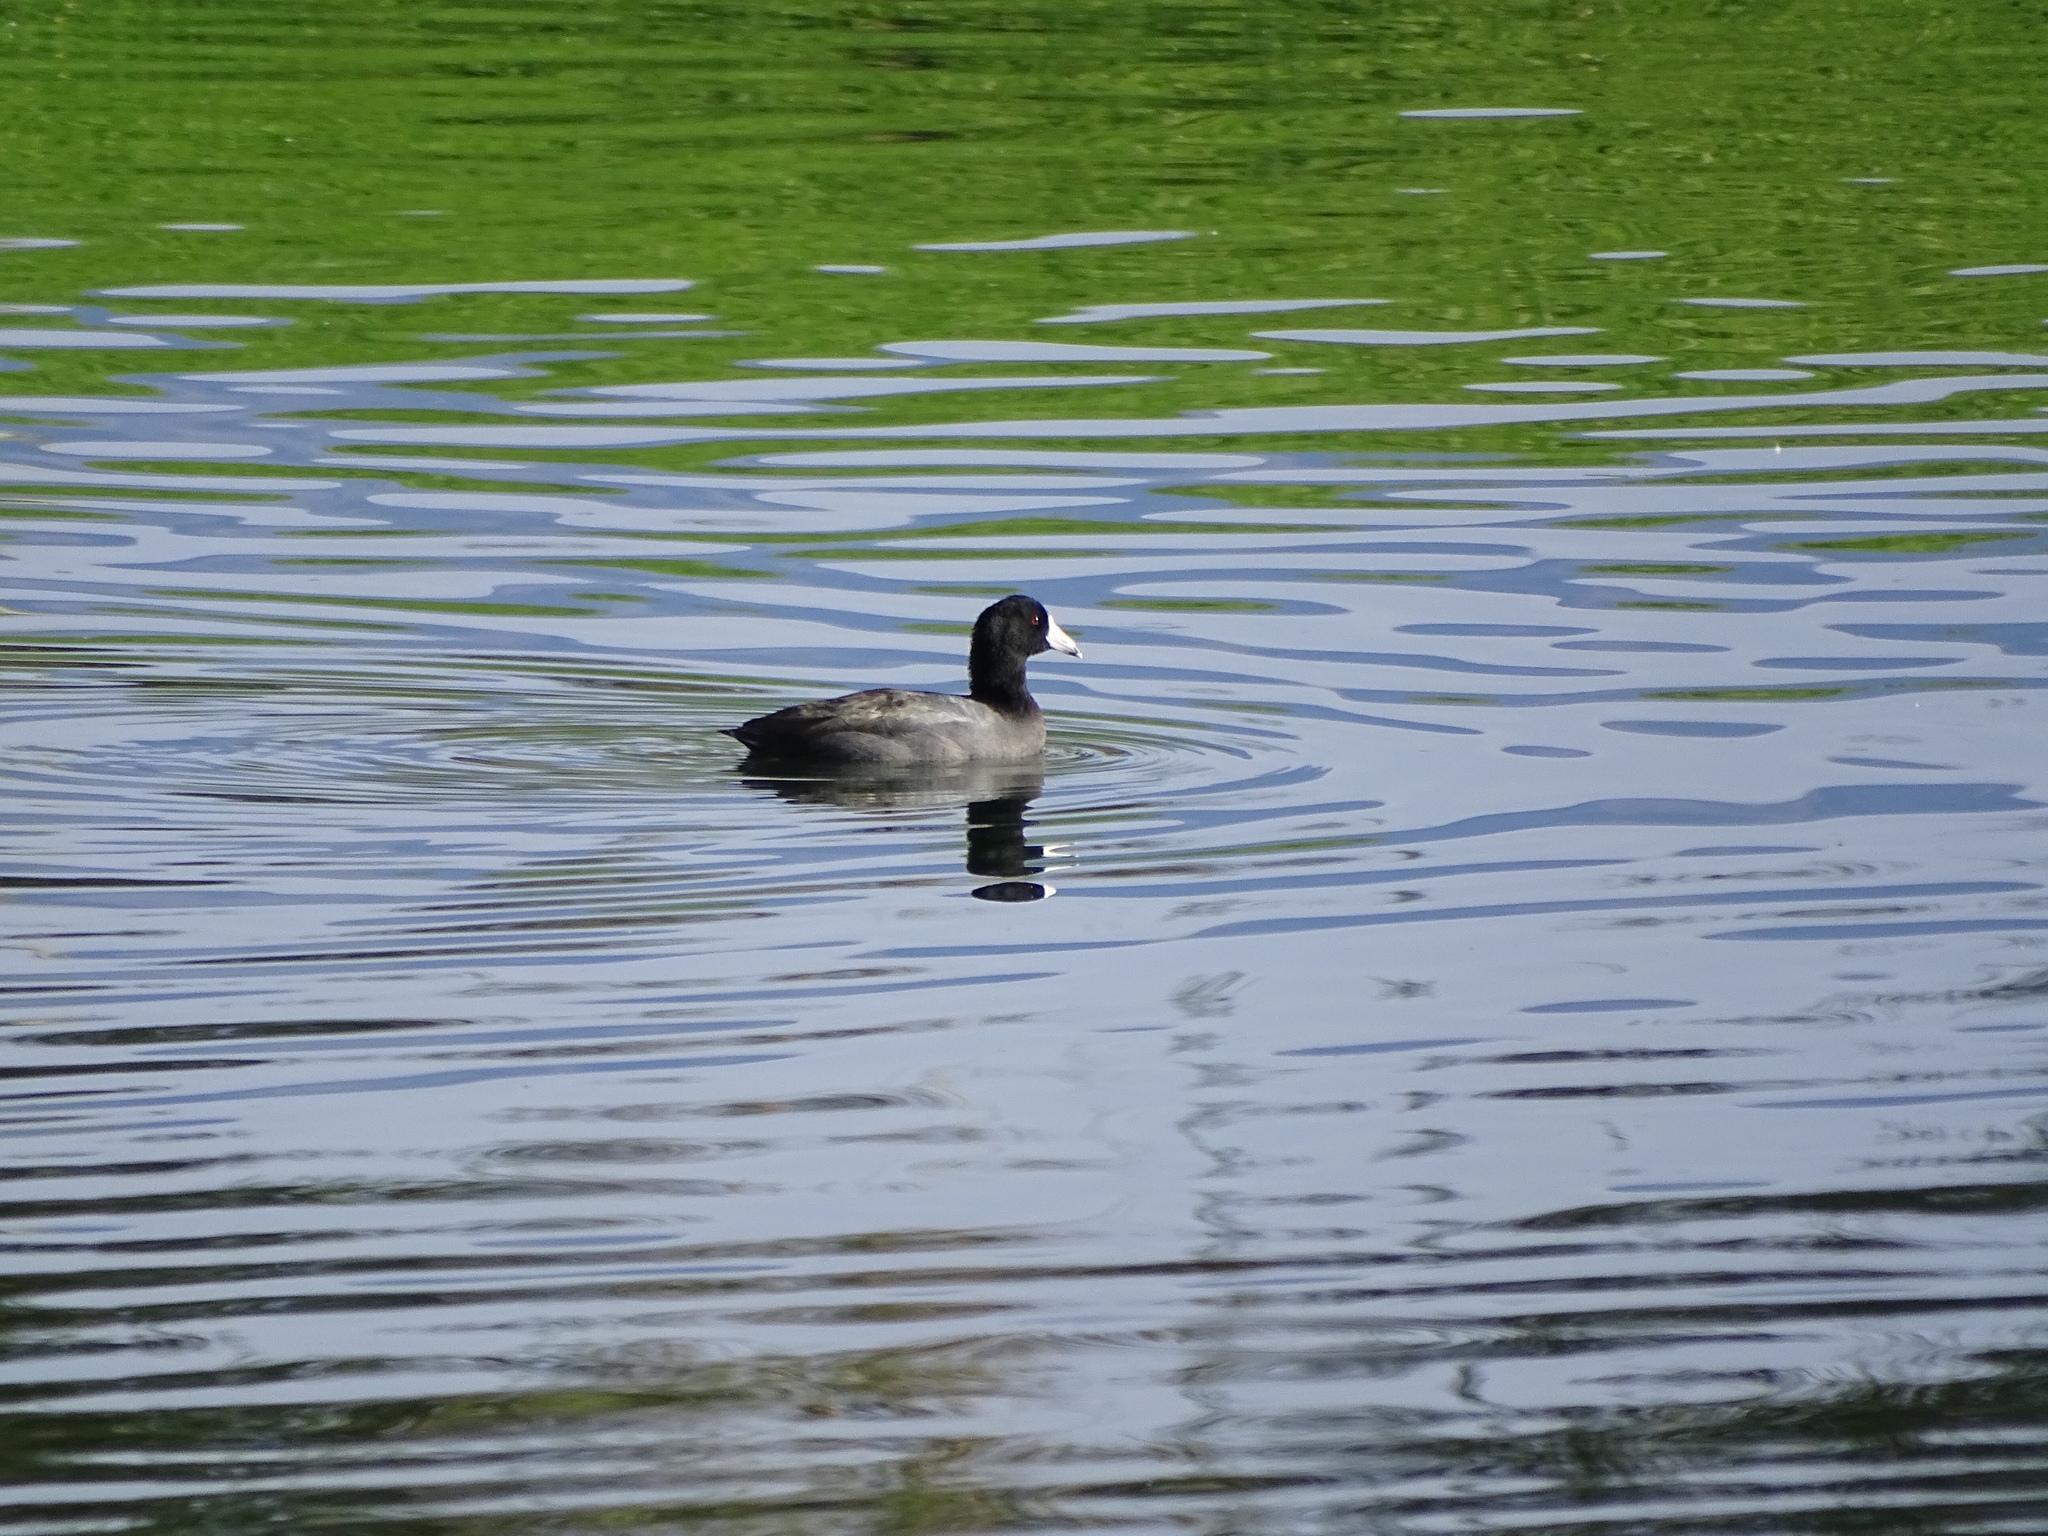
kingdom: Animalia
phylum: Chordata
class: Aves
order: Gruiformes
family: Rallidae
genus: Fulica
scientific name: Fulica americana
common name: American coot
